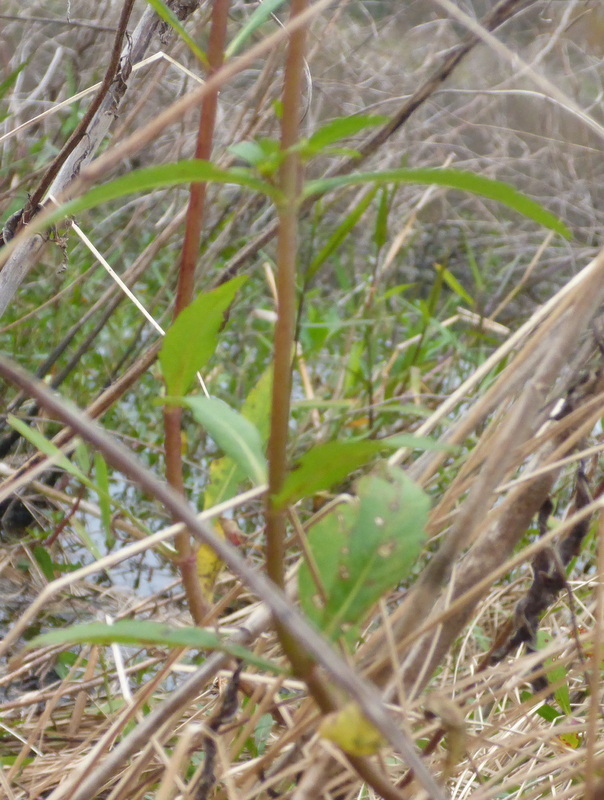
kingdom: Plantae
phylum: Tracheophyta
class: Magnoliopsida
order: Asterales
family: Asteraceae
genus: Bidens
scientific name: Bidens laevis
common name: Larger bur-marigold
